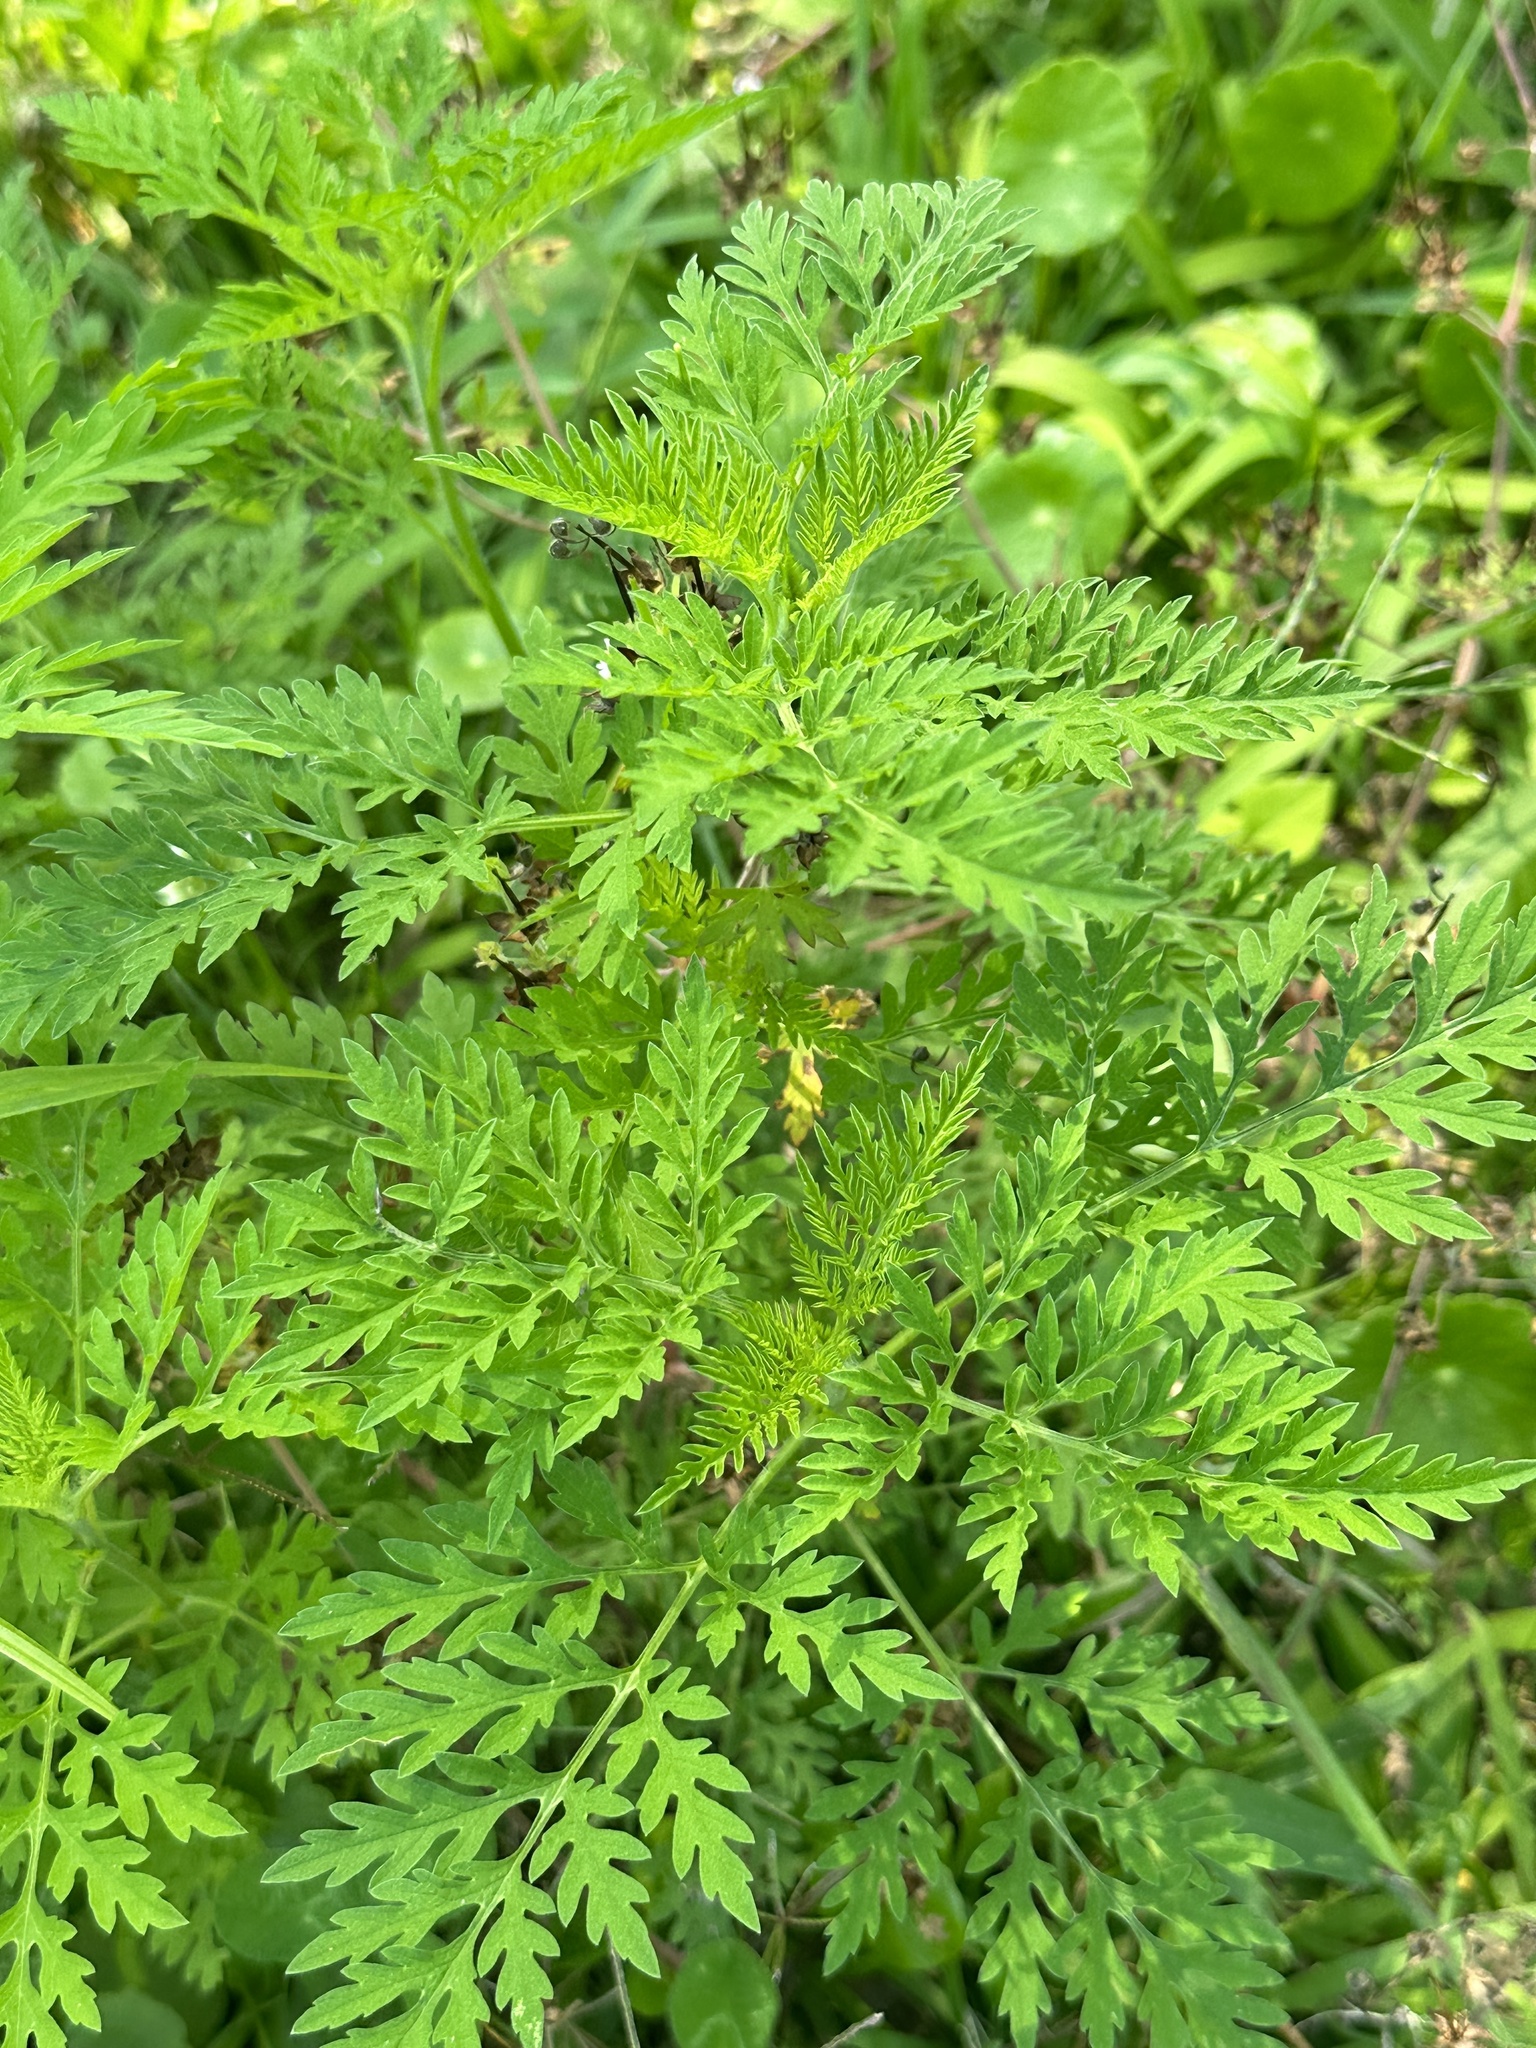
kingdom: Plantae
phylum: Tracheophyta
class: Magnoliopsida
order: Asterales
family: Asteraceae
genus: Ambrosia
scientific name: Ambrosia artemisiifolia
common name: Annual ragweed
